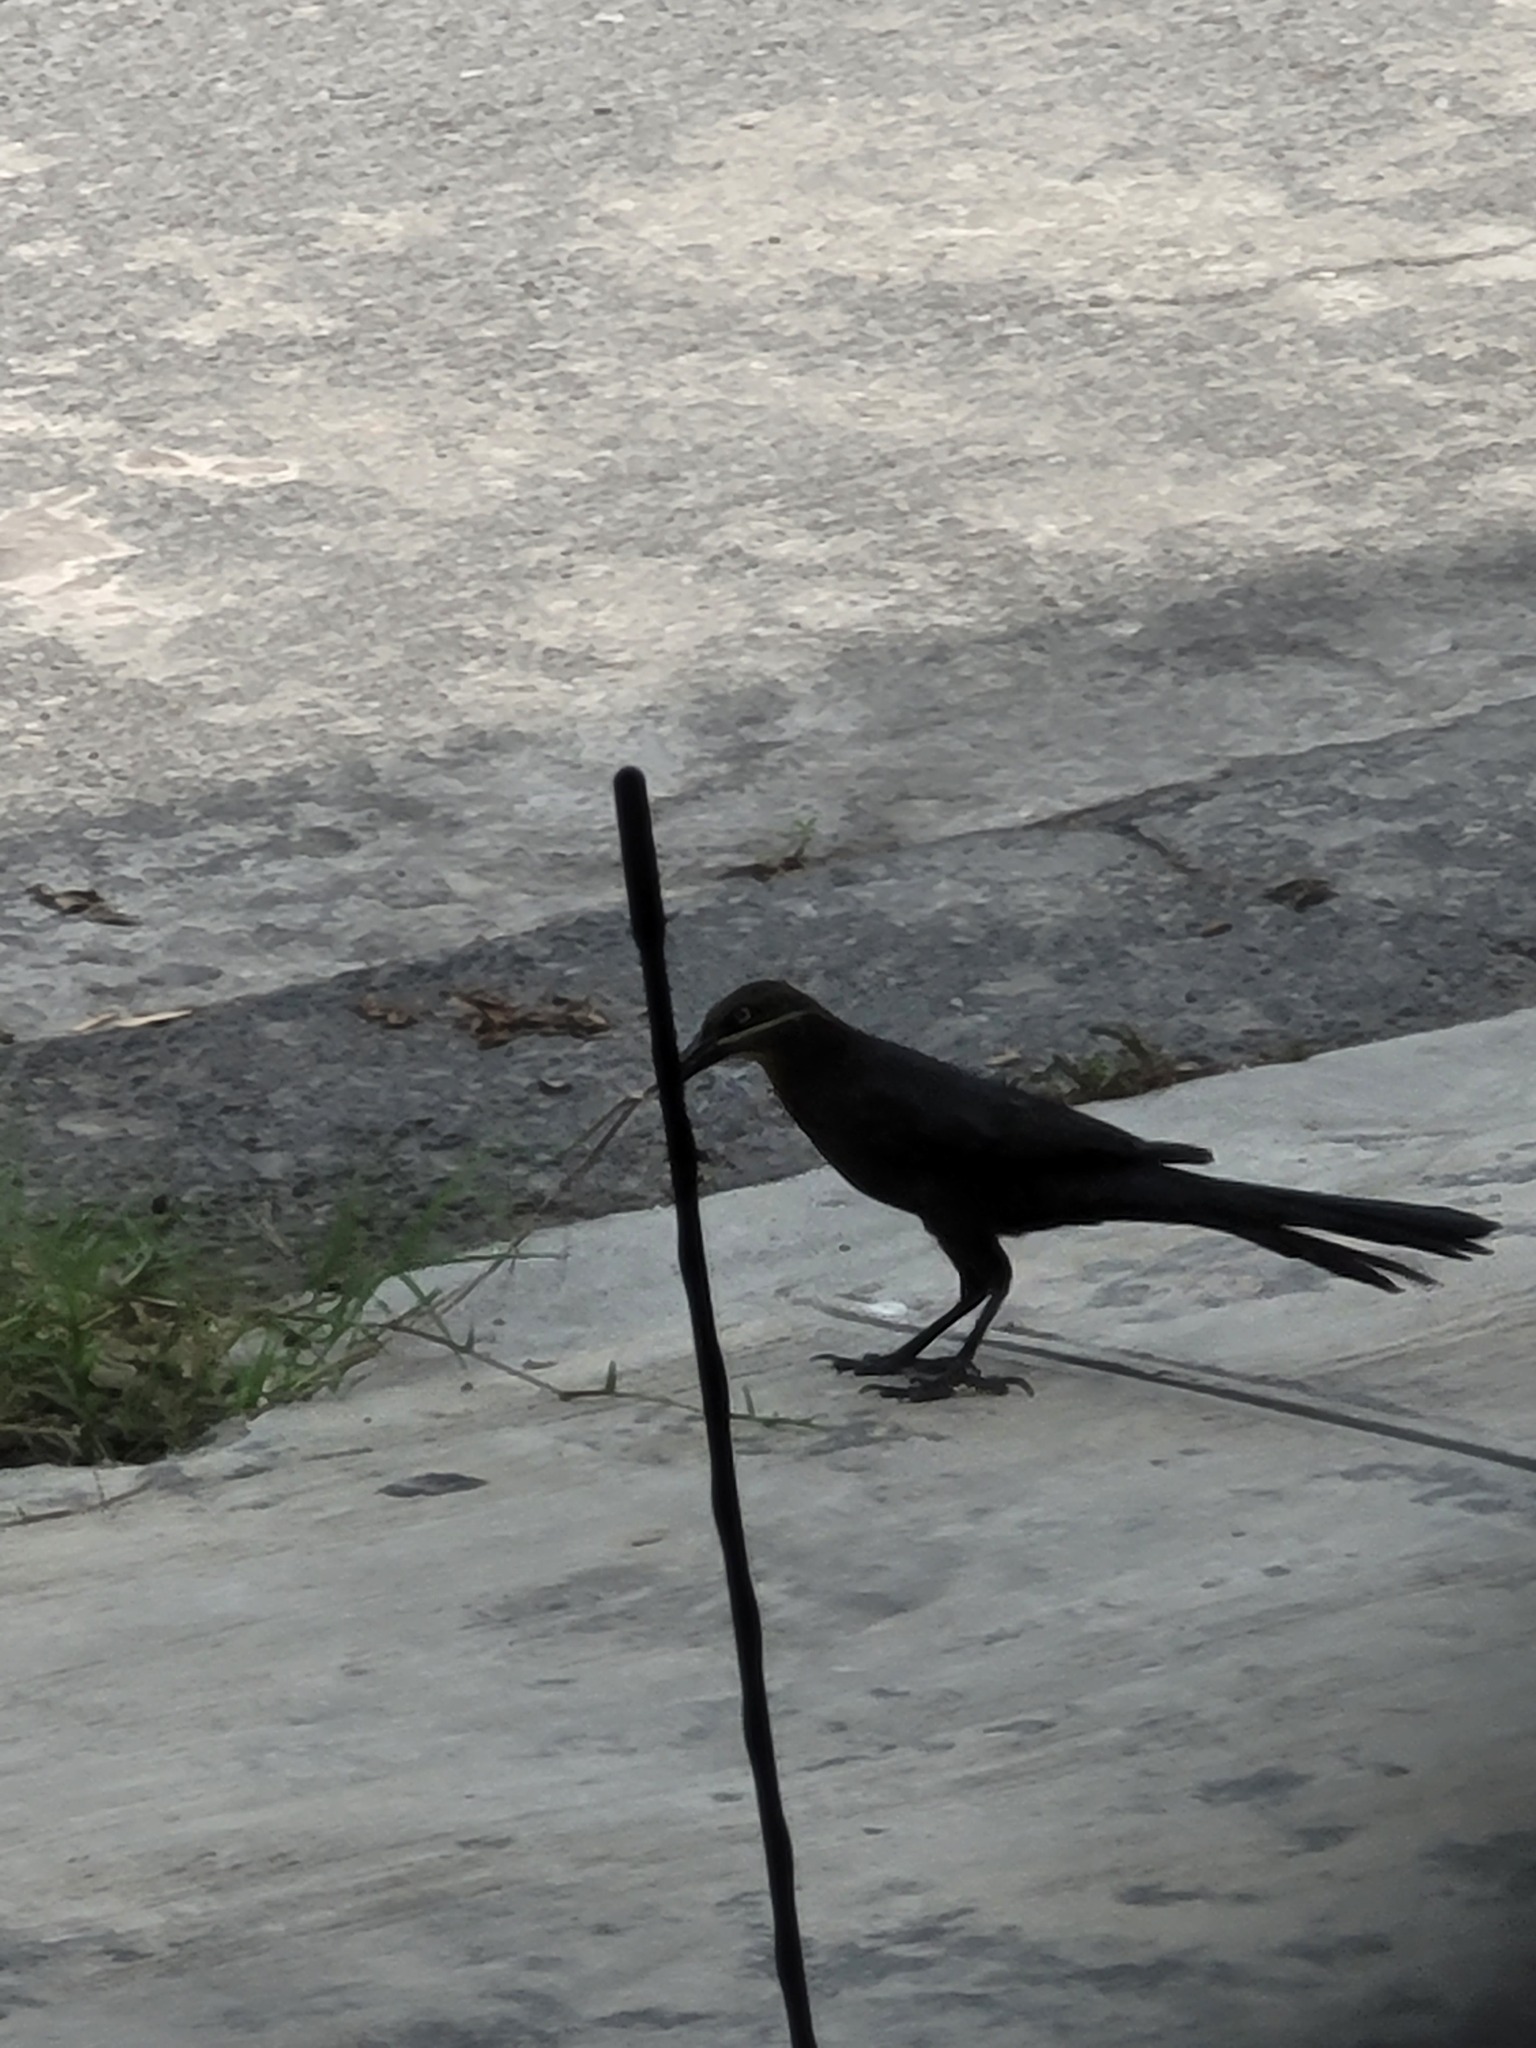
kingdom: Animalia
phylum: Chordata
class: Aves
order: Passeriformes
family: Icteridae
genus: Quiscalus
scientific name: Quiscalus mexicanus
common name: Great-tailed grackle
